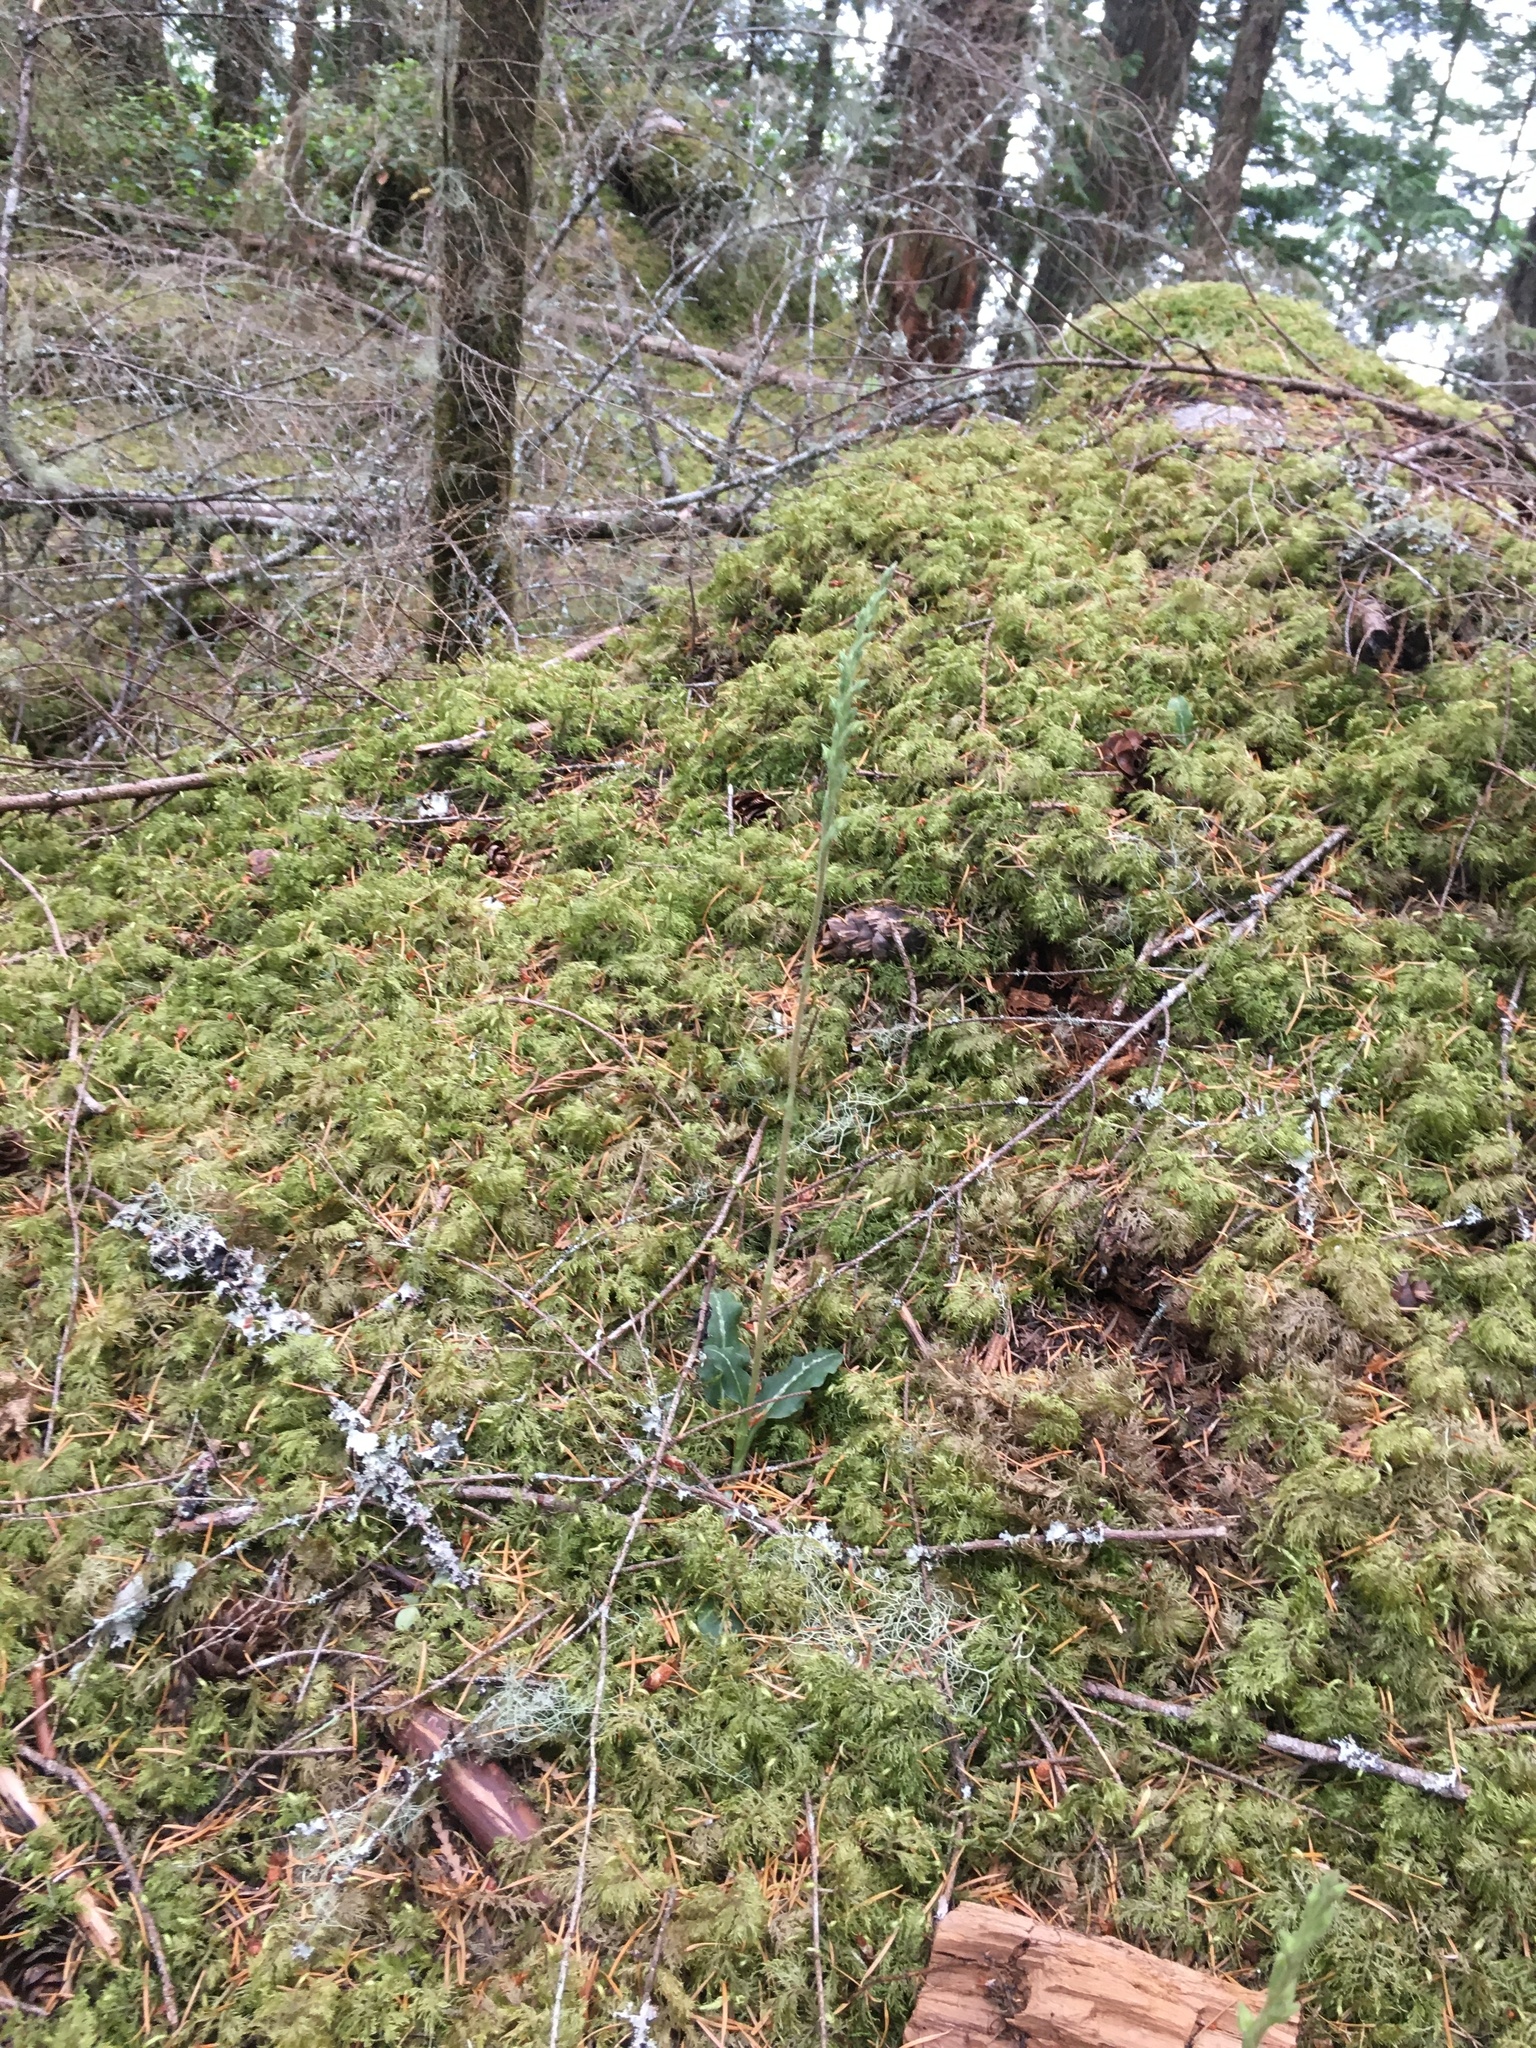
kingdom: Plantae
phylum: Tracheophyta
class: Liliopsida
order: Asparagales
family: Orchidaceae
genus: Goodyera
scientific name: Goodyera oblongifolia
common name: Giant rattlesnake-plantain
